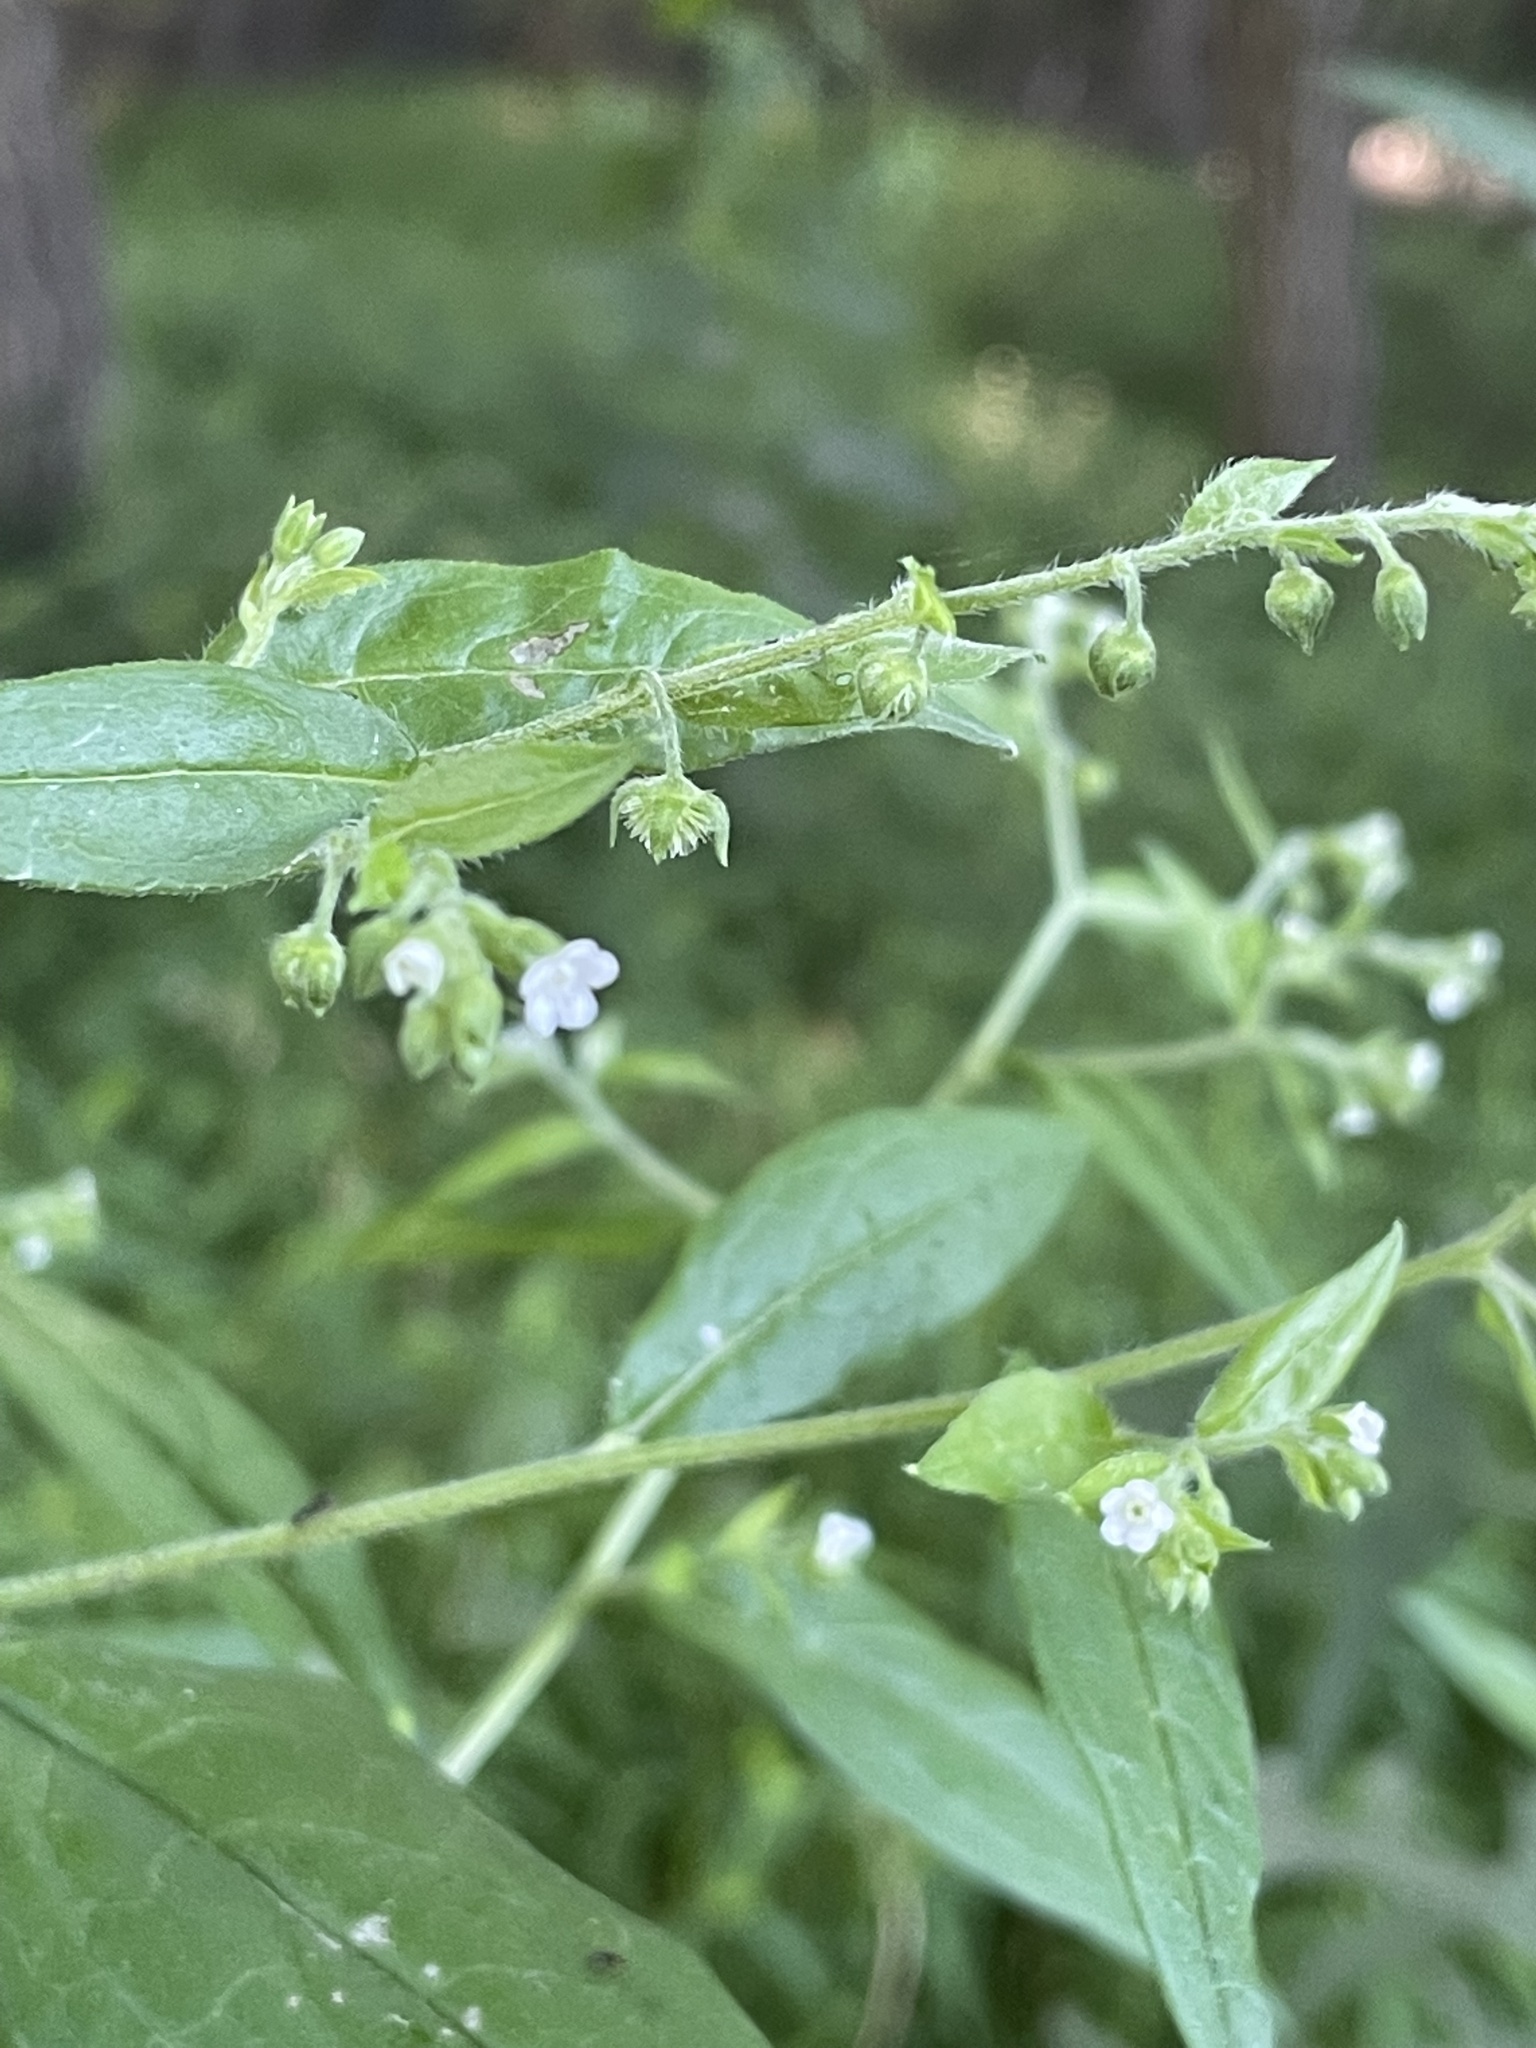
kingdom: Plantae
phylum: Tracheophyta
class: Magnoliopsida
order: Boraginales
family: Boraginaceae
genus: Hackelia
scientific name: Hackelia virginiana
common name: Beggar's-lice
